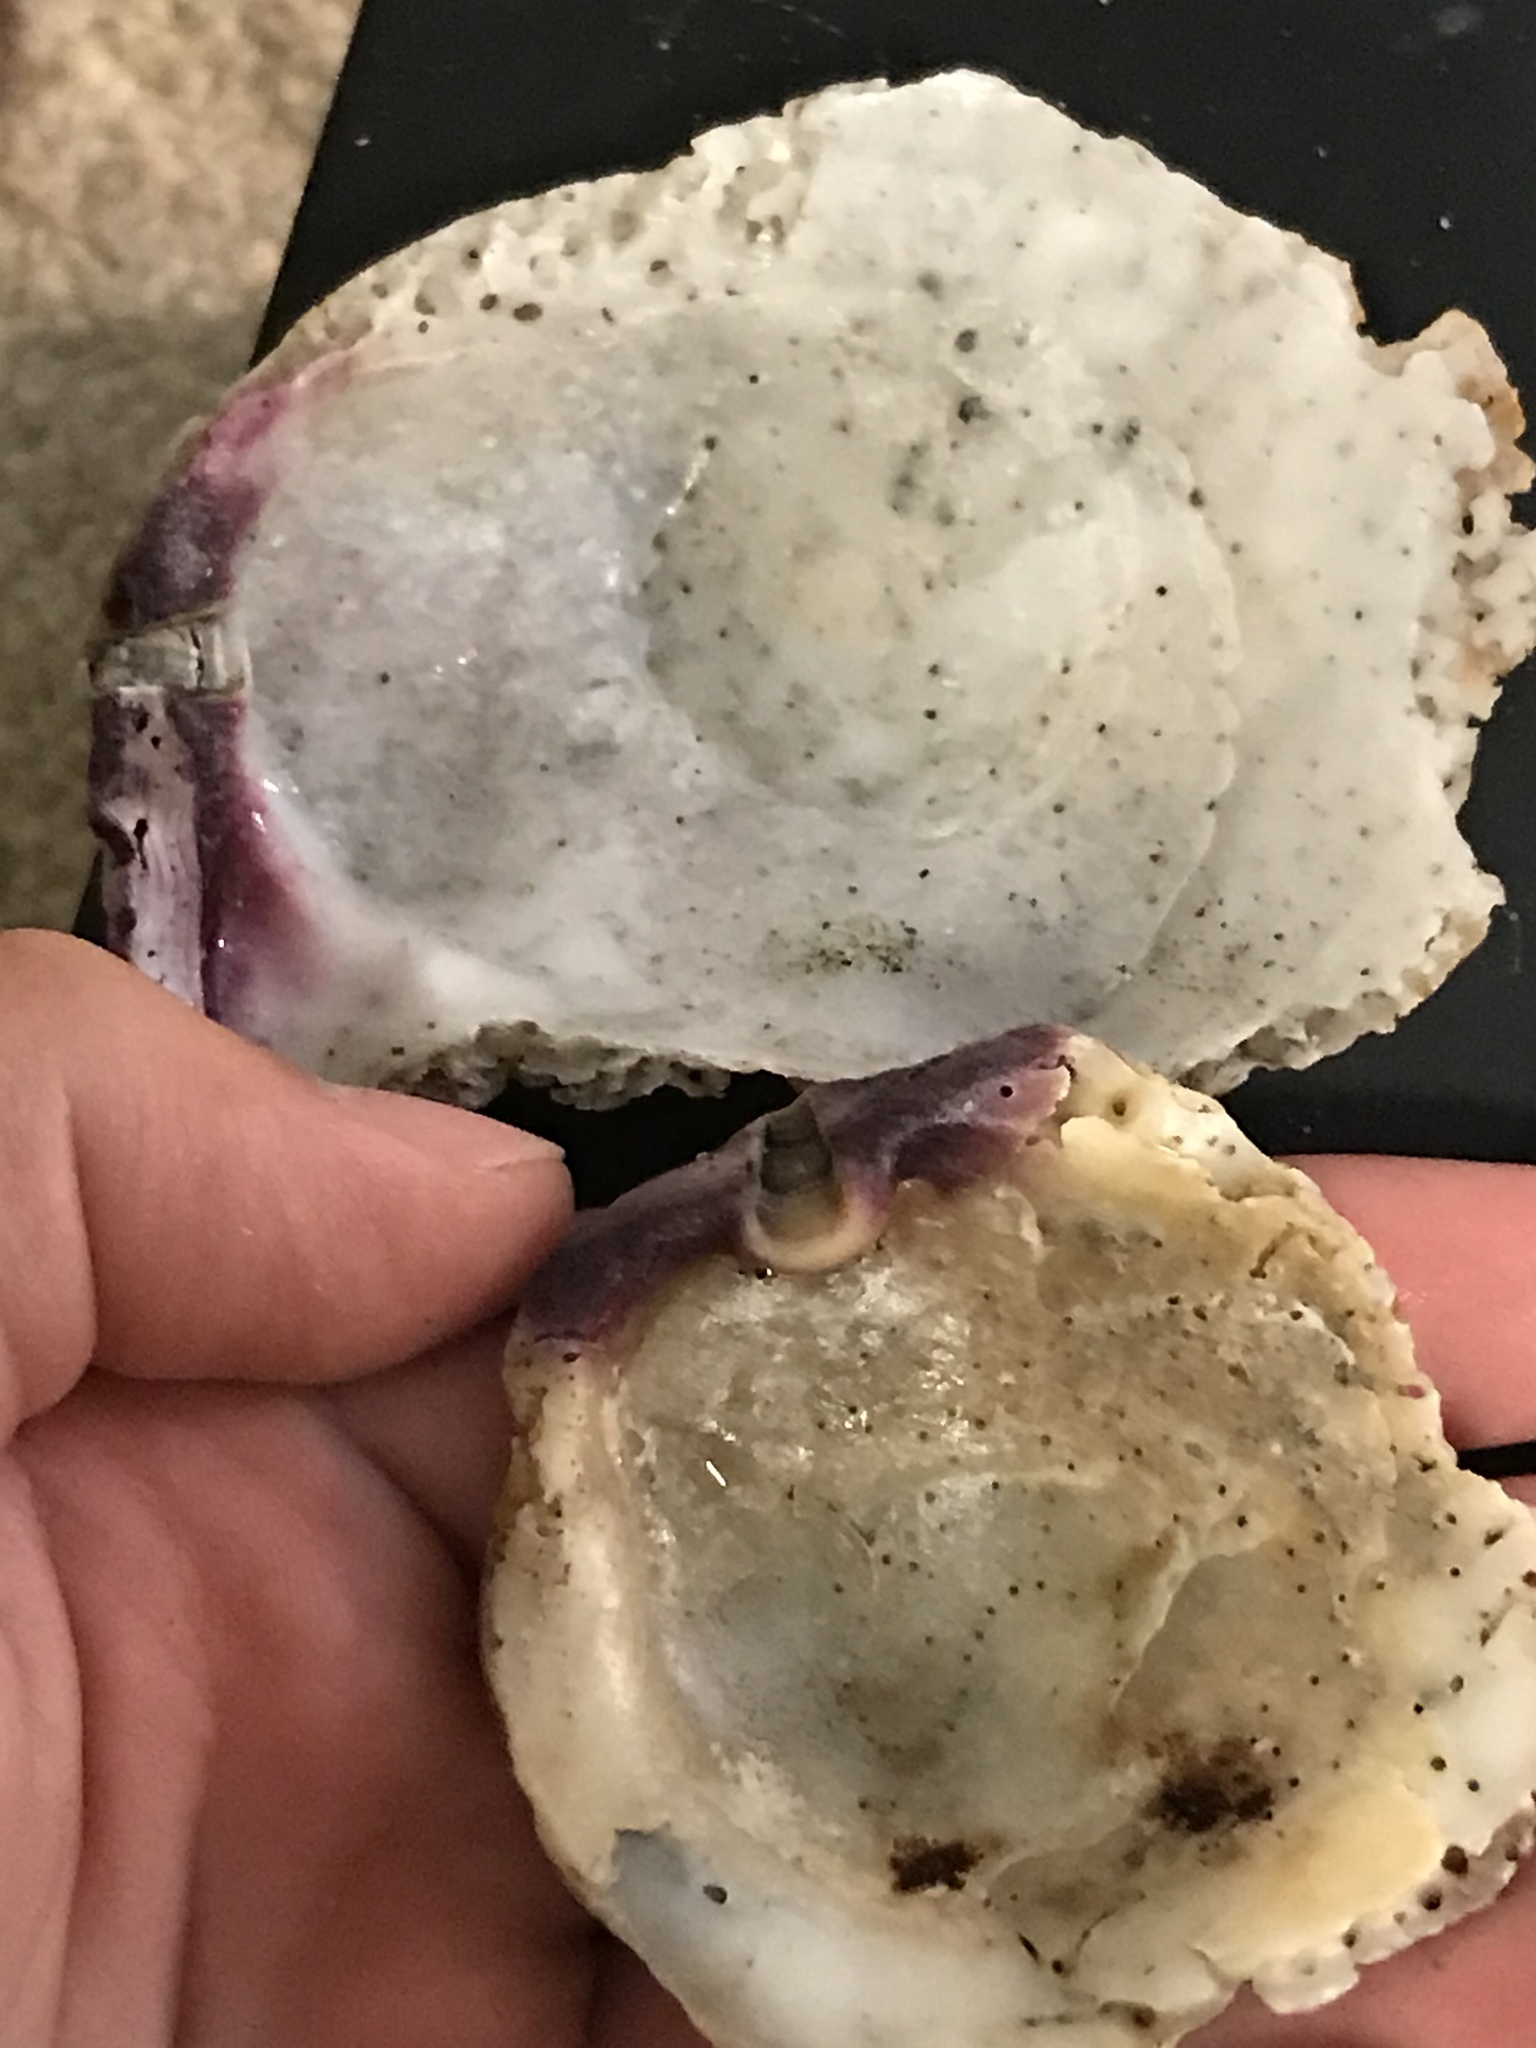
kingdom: Animalia
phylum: Mollusca
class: Bivalvia
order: Pectinida
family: Pectinidae
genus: Crassadoma
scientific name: Crassadoma gigantea
